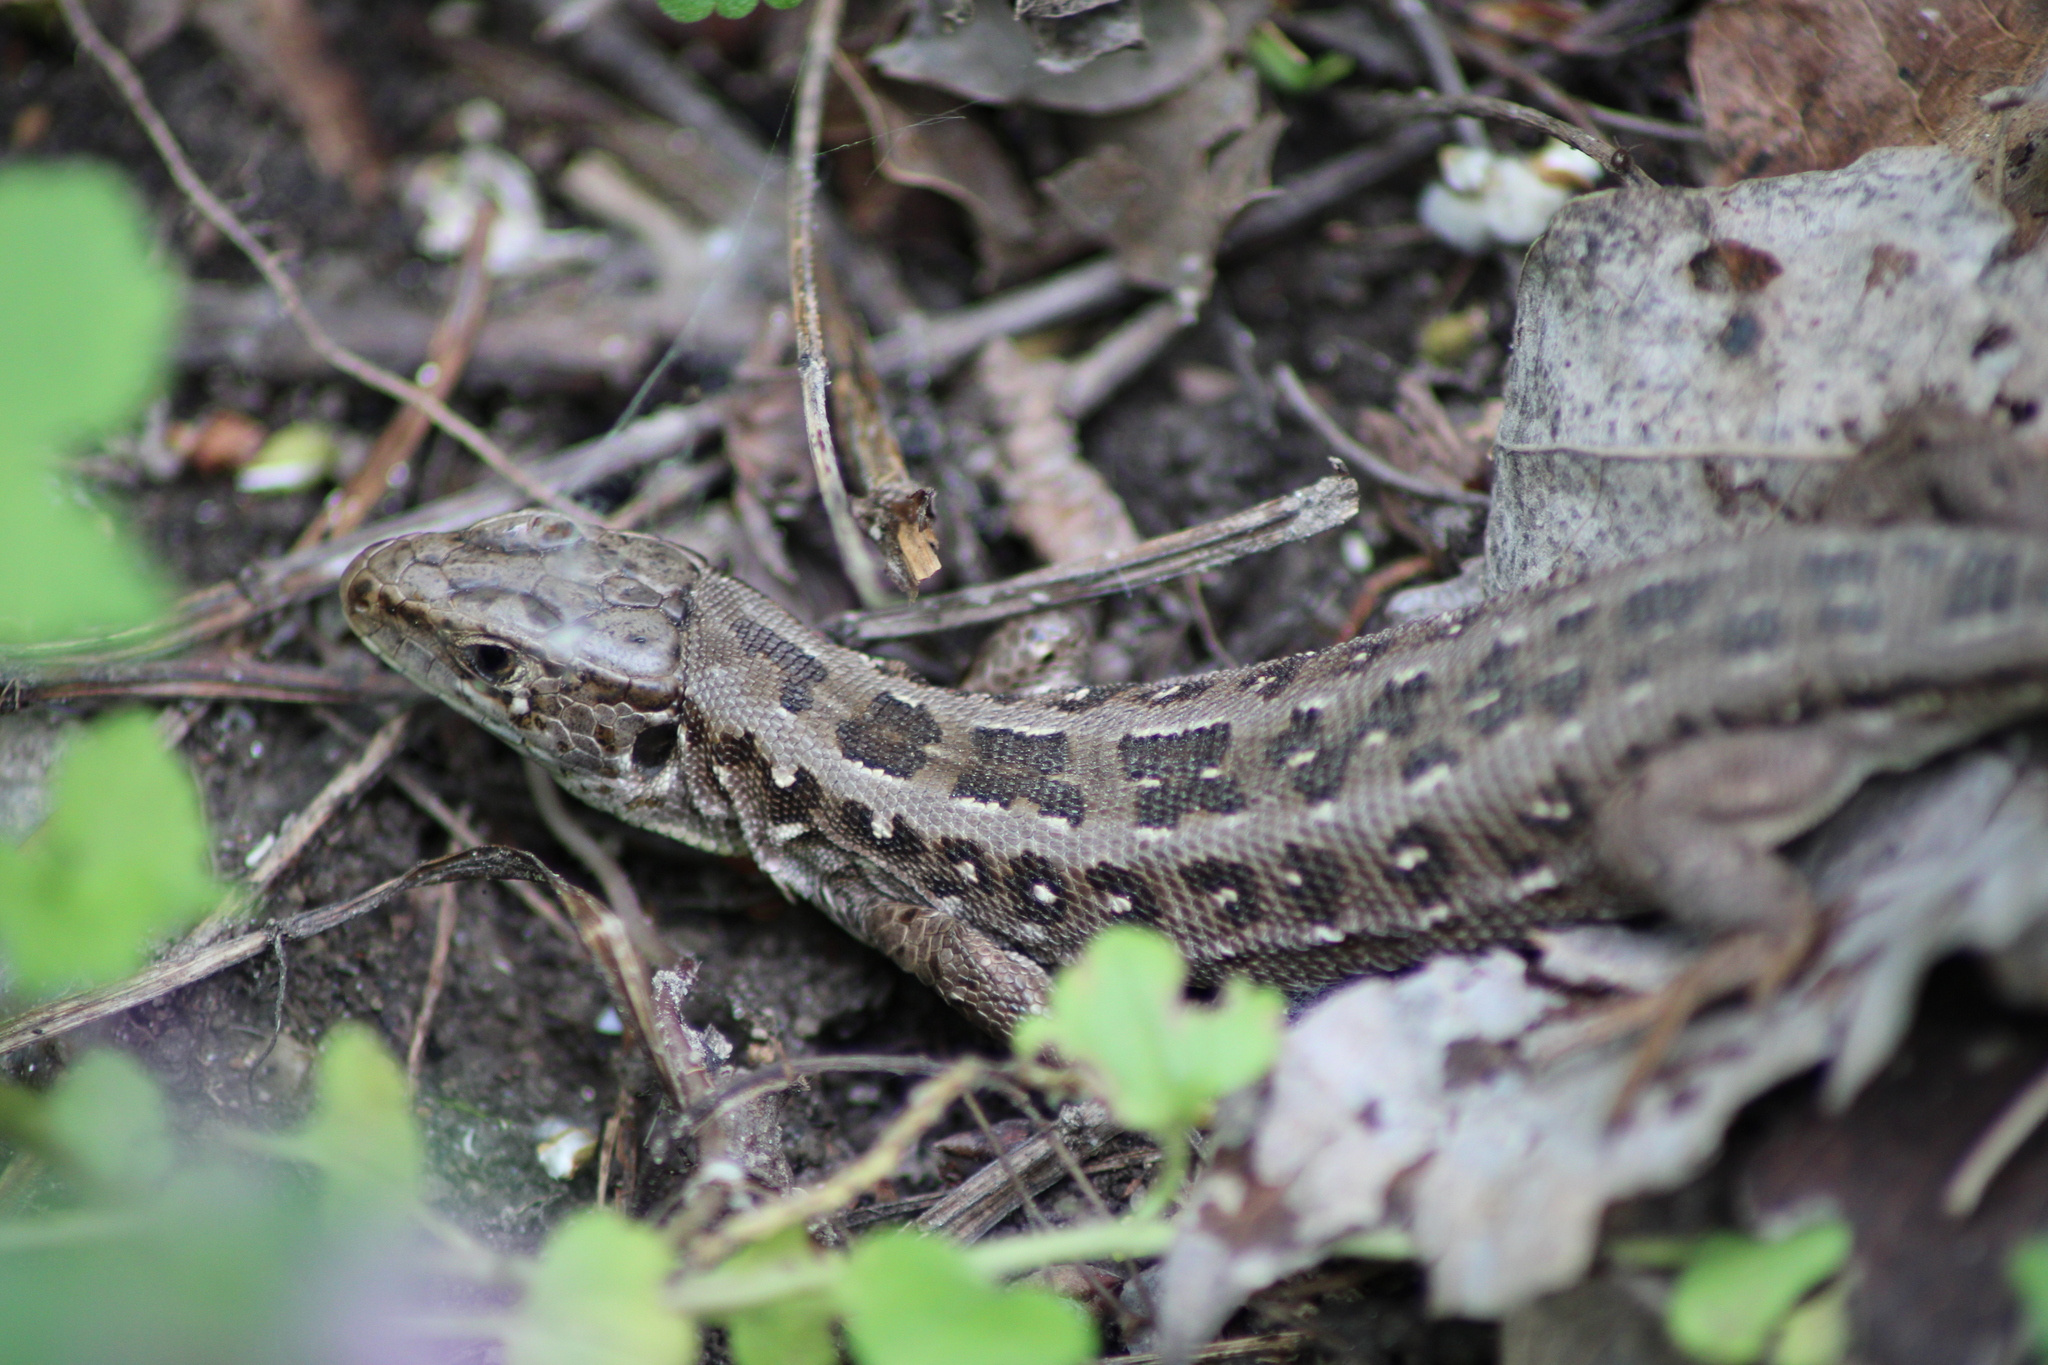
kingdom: Animalia
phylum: Chordata
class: Squamata
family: Lacertidae
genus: Lacerta
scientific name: Lacerta agilis
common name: Sand lizard
